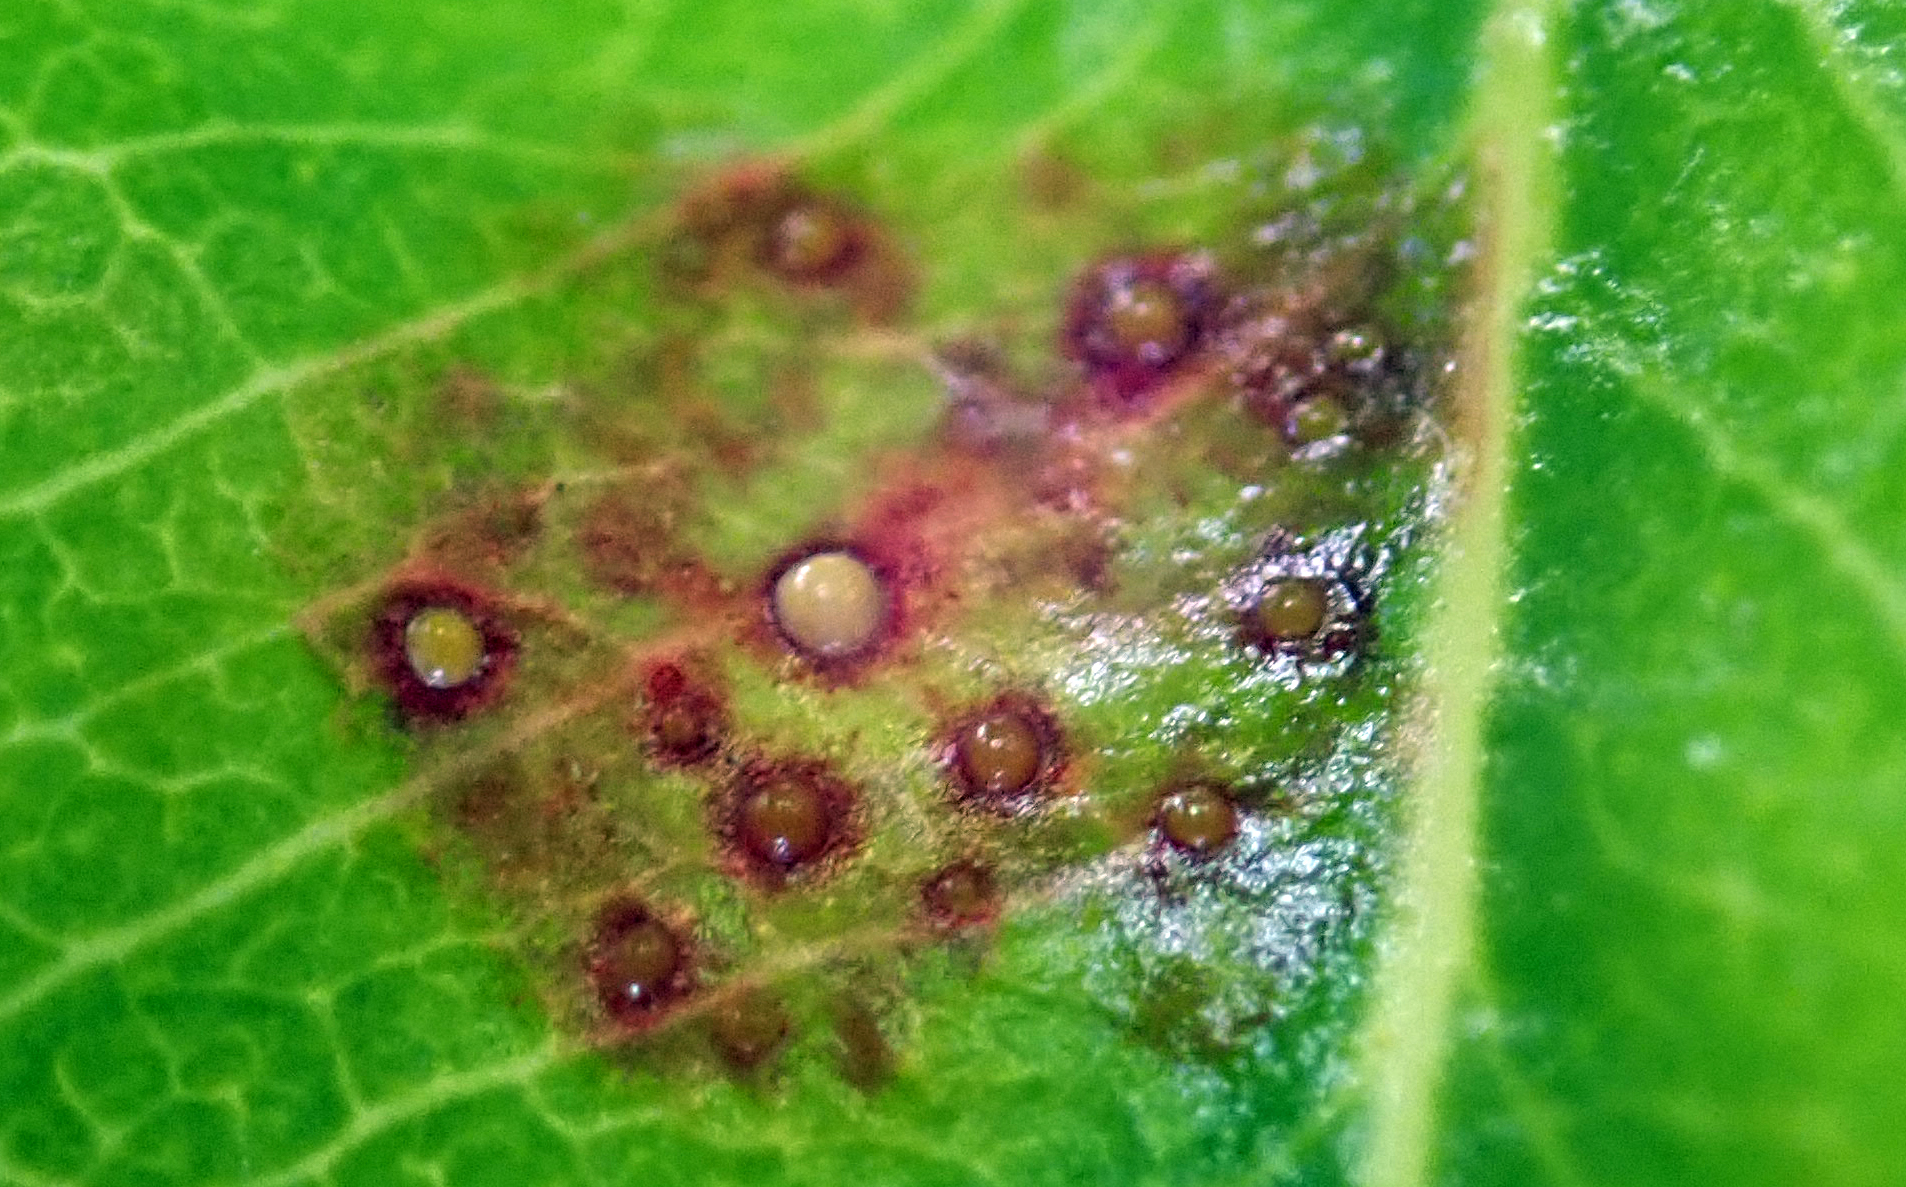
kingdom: Fungi
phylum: Basidiomycota
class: Pucciniomycetes
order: Pucciniales
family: Sphaerophragmiaceae
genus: Austropuccinia
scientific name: Austropuccinia psidii
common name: Myrtle rust
